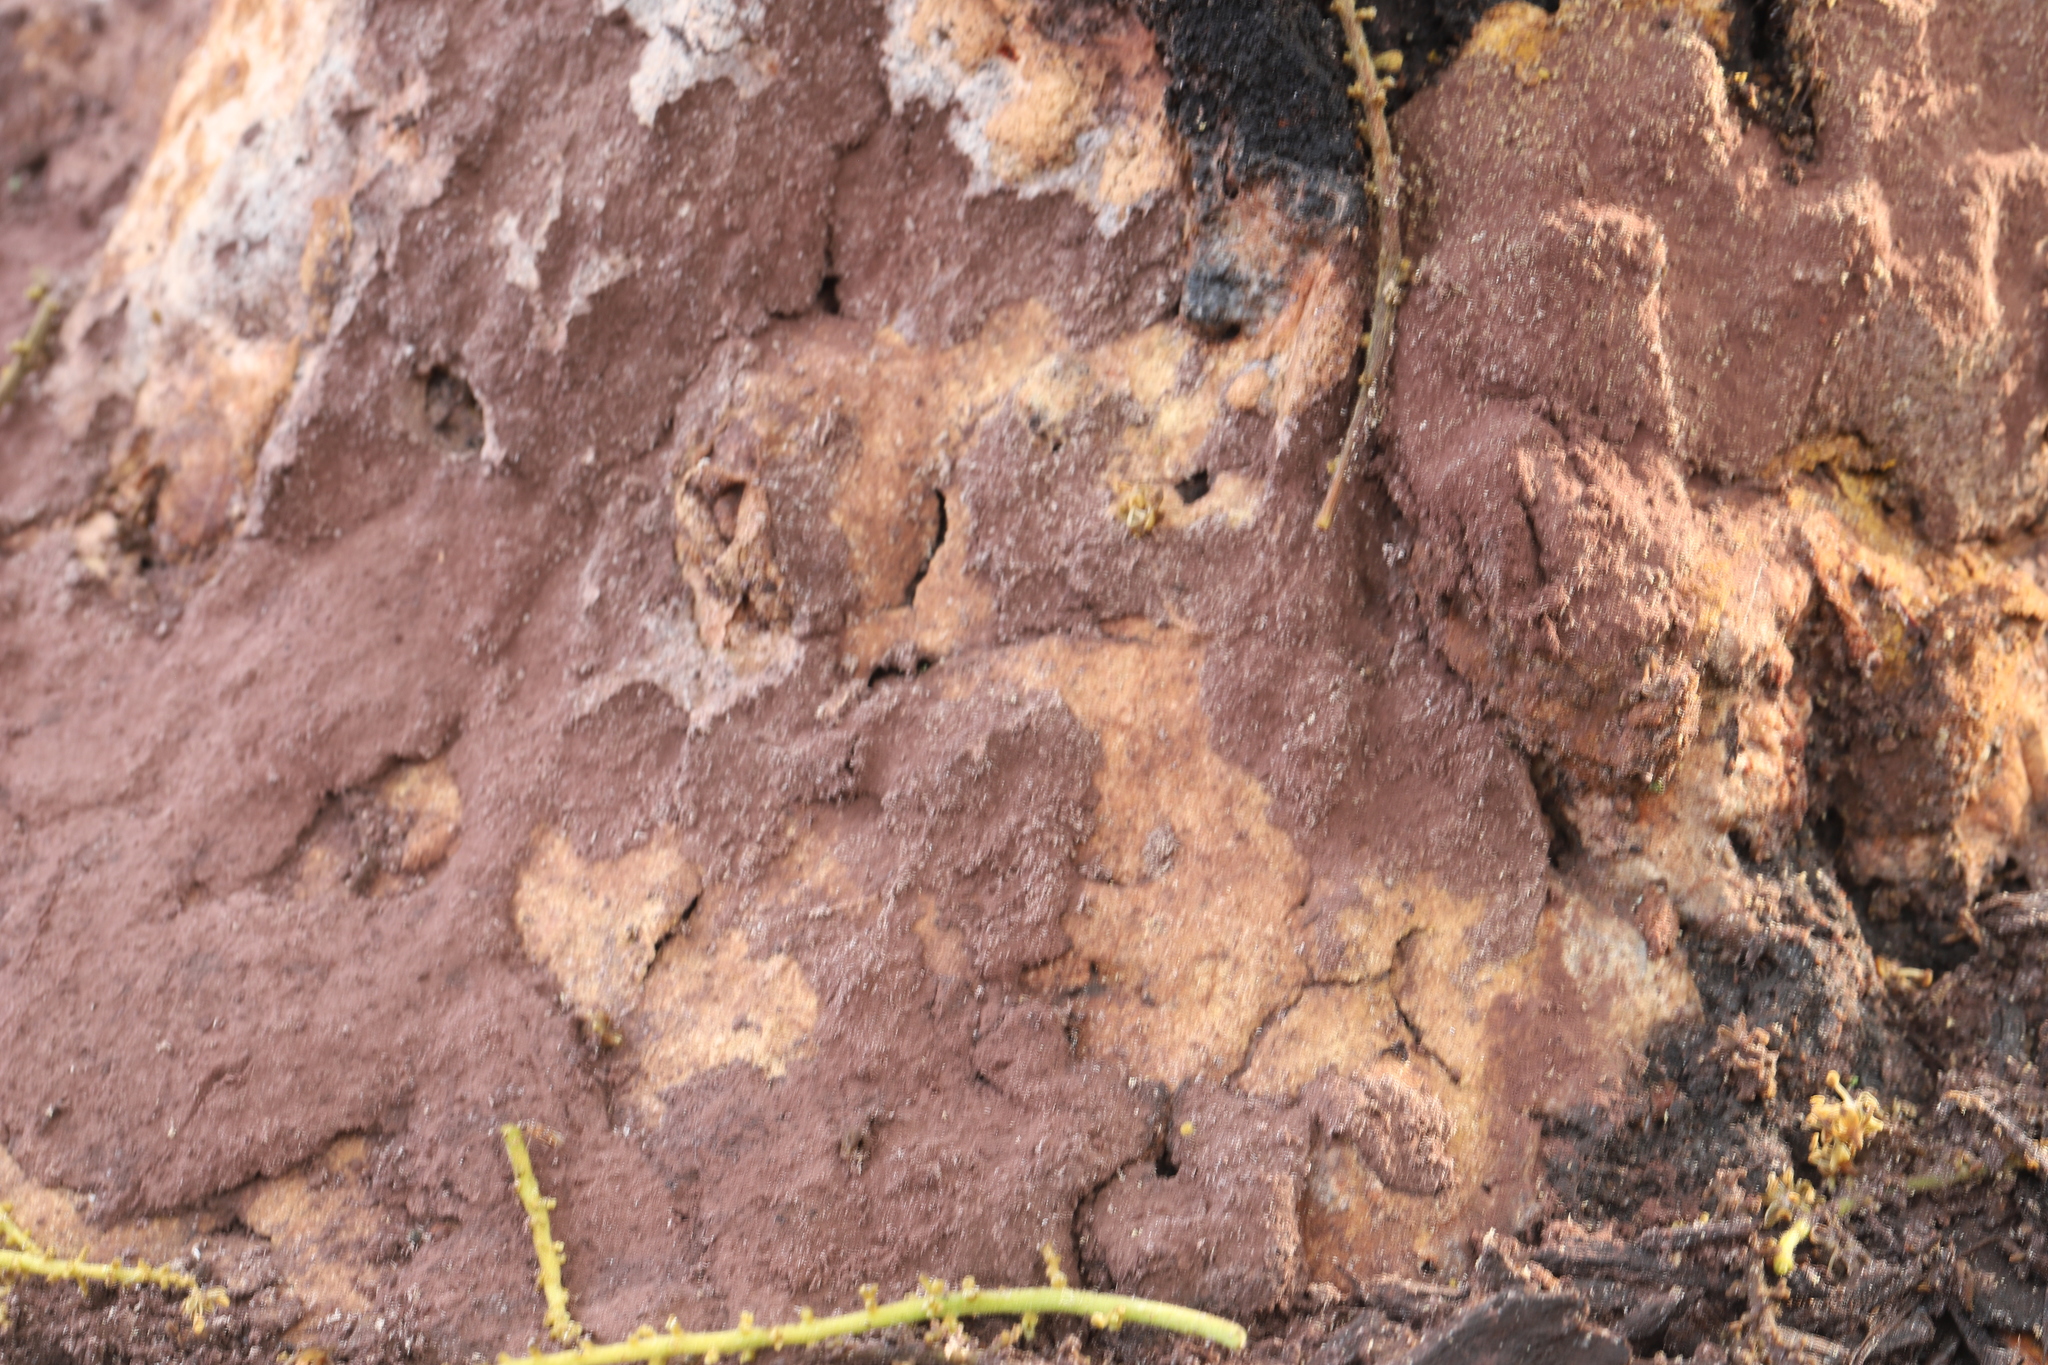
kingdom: Protozoa
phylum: Mycetozoa
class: Myxomycetes
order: Physarales
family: Physaraceae
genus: Fuligo
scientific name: Fuligo septica
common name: Dog vomit slime mold
